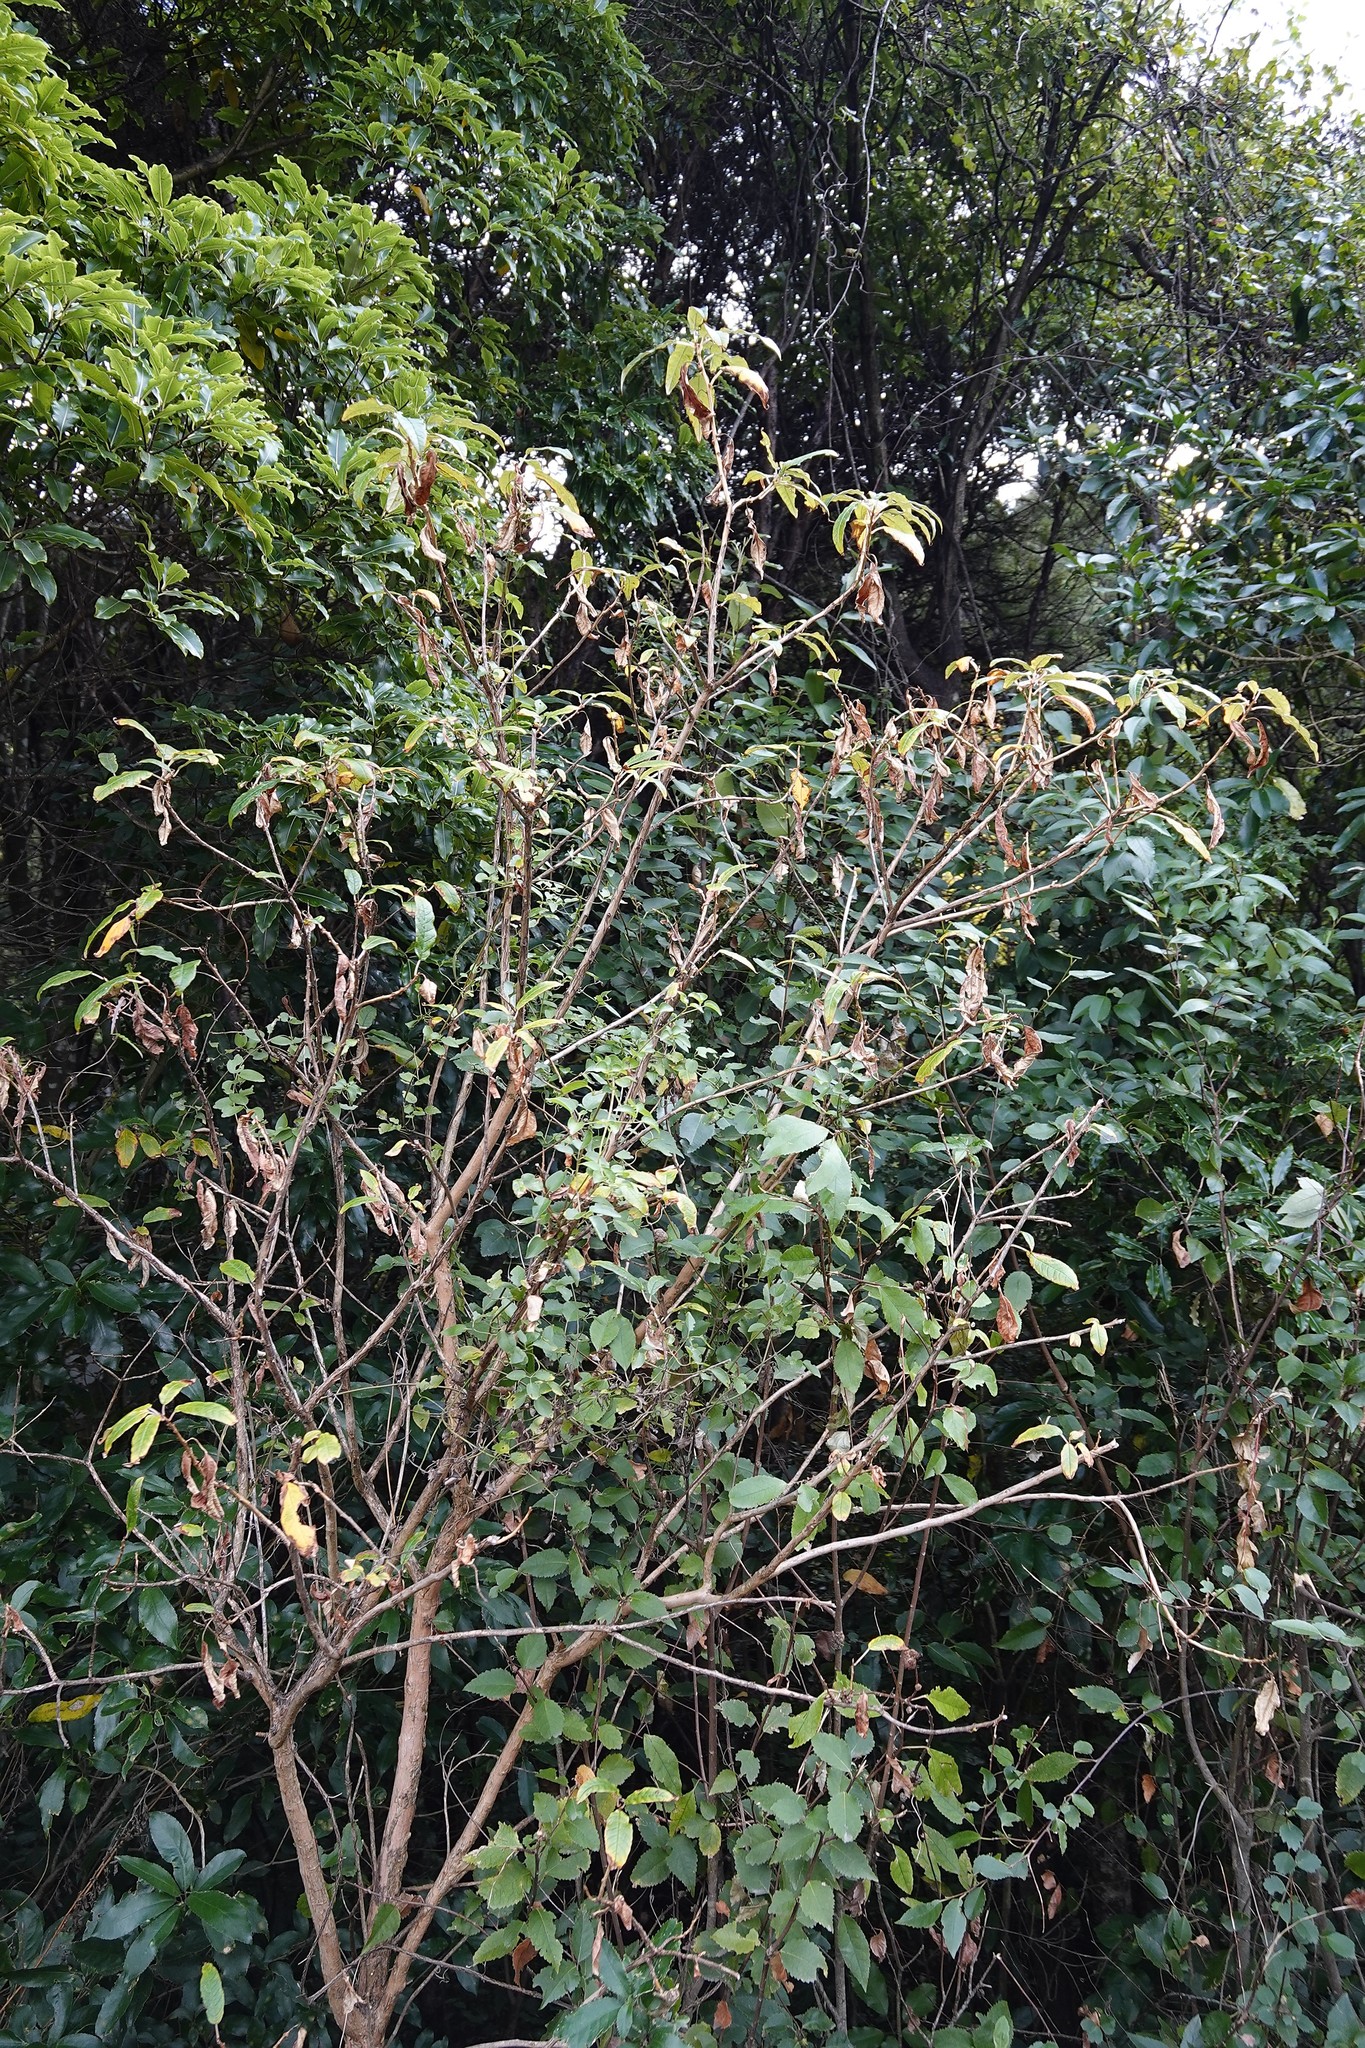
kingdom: Plantae
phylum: Tracheophyta
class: Magnoliopsida
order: Myrtales
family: Onagraceae
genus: Fuchsia
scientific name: Fuchsia excorticata
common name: Tree fuchsia
